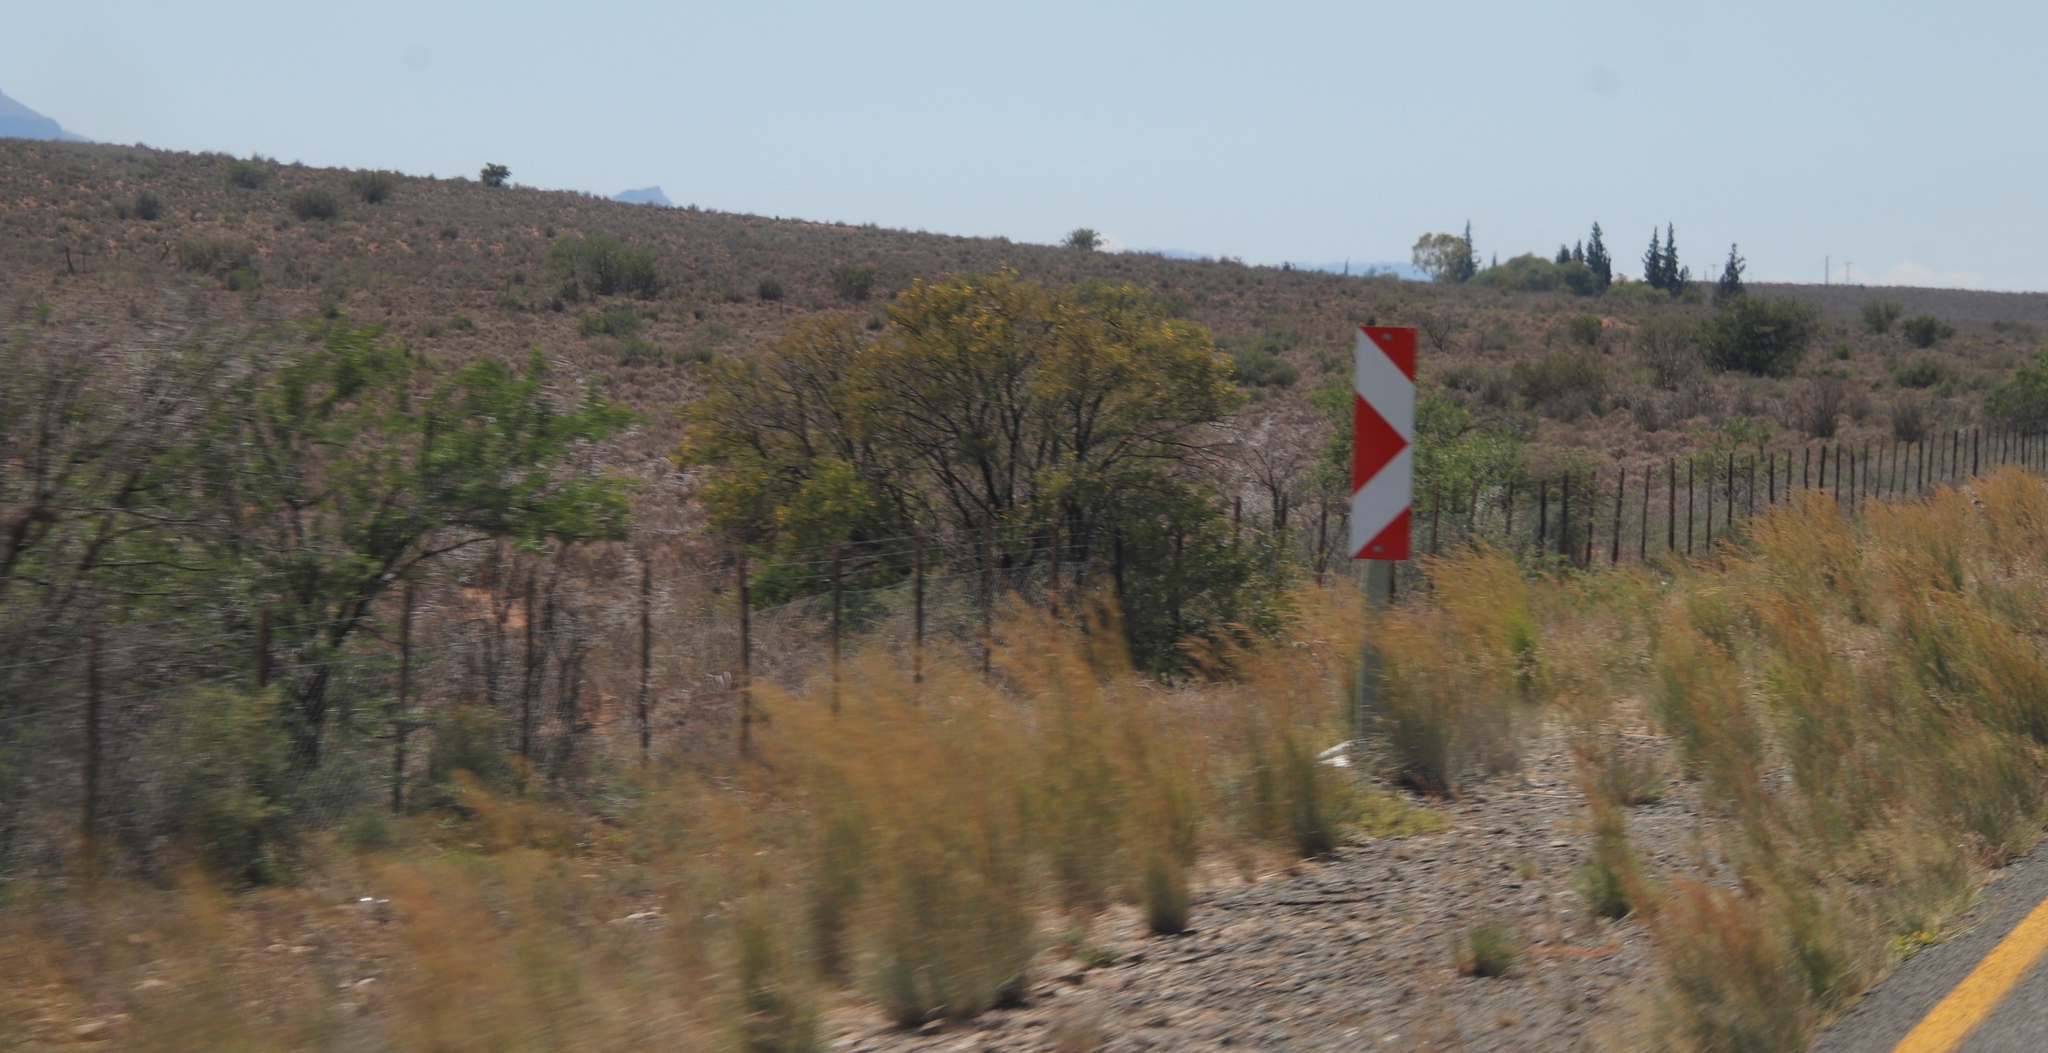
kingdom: Plantae
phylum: Tracheophyta
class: Magnoliopsida
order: Fabales
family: Fabaceae
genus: Vachellia
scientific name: Vachellia karroo
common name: Sweet thorn
